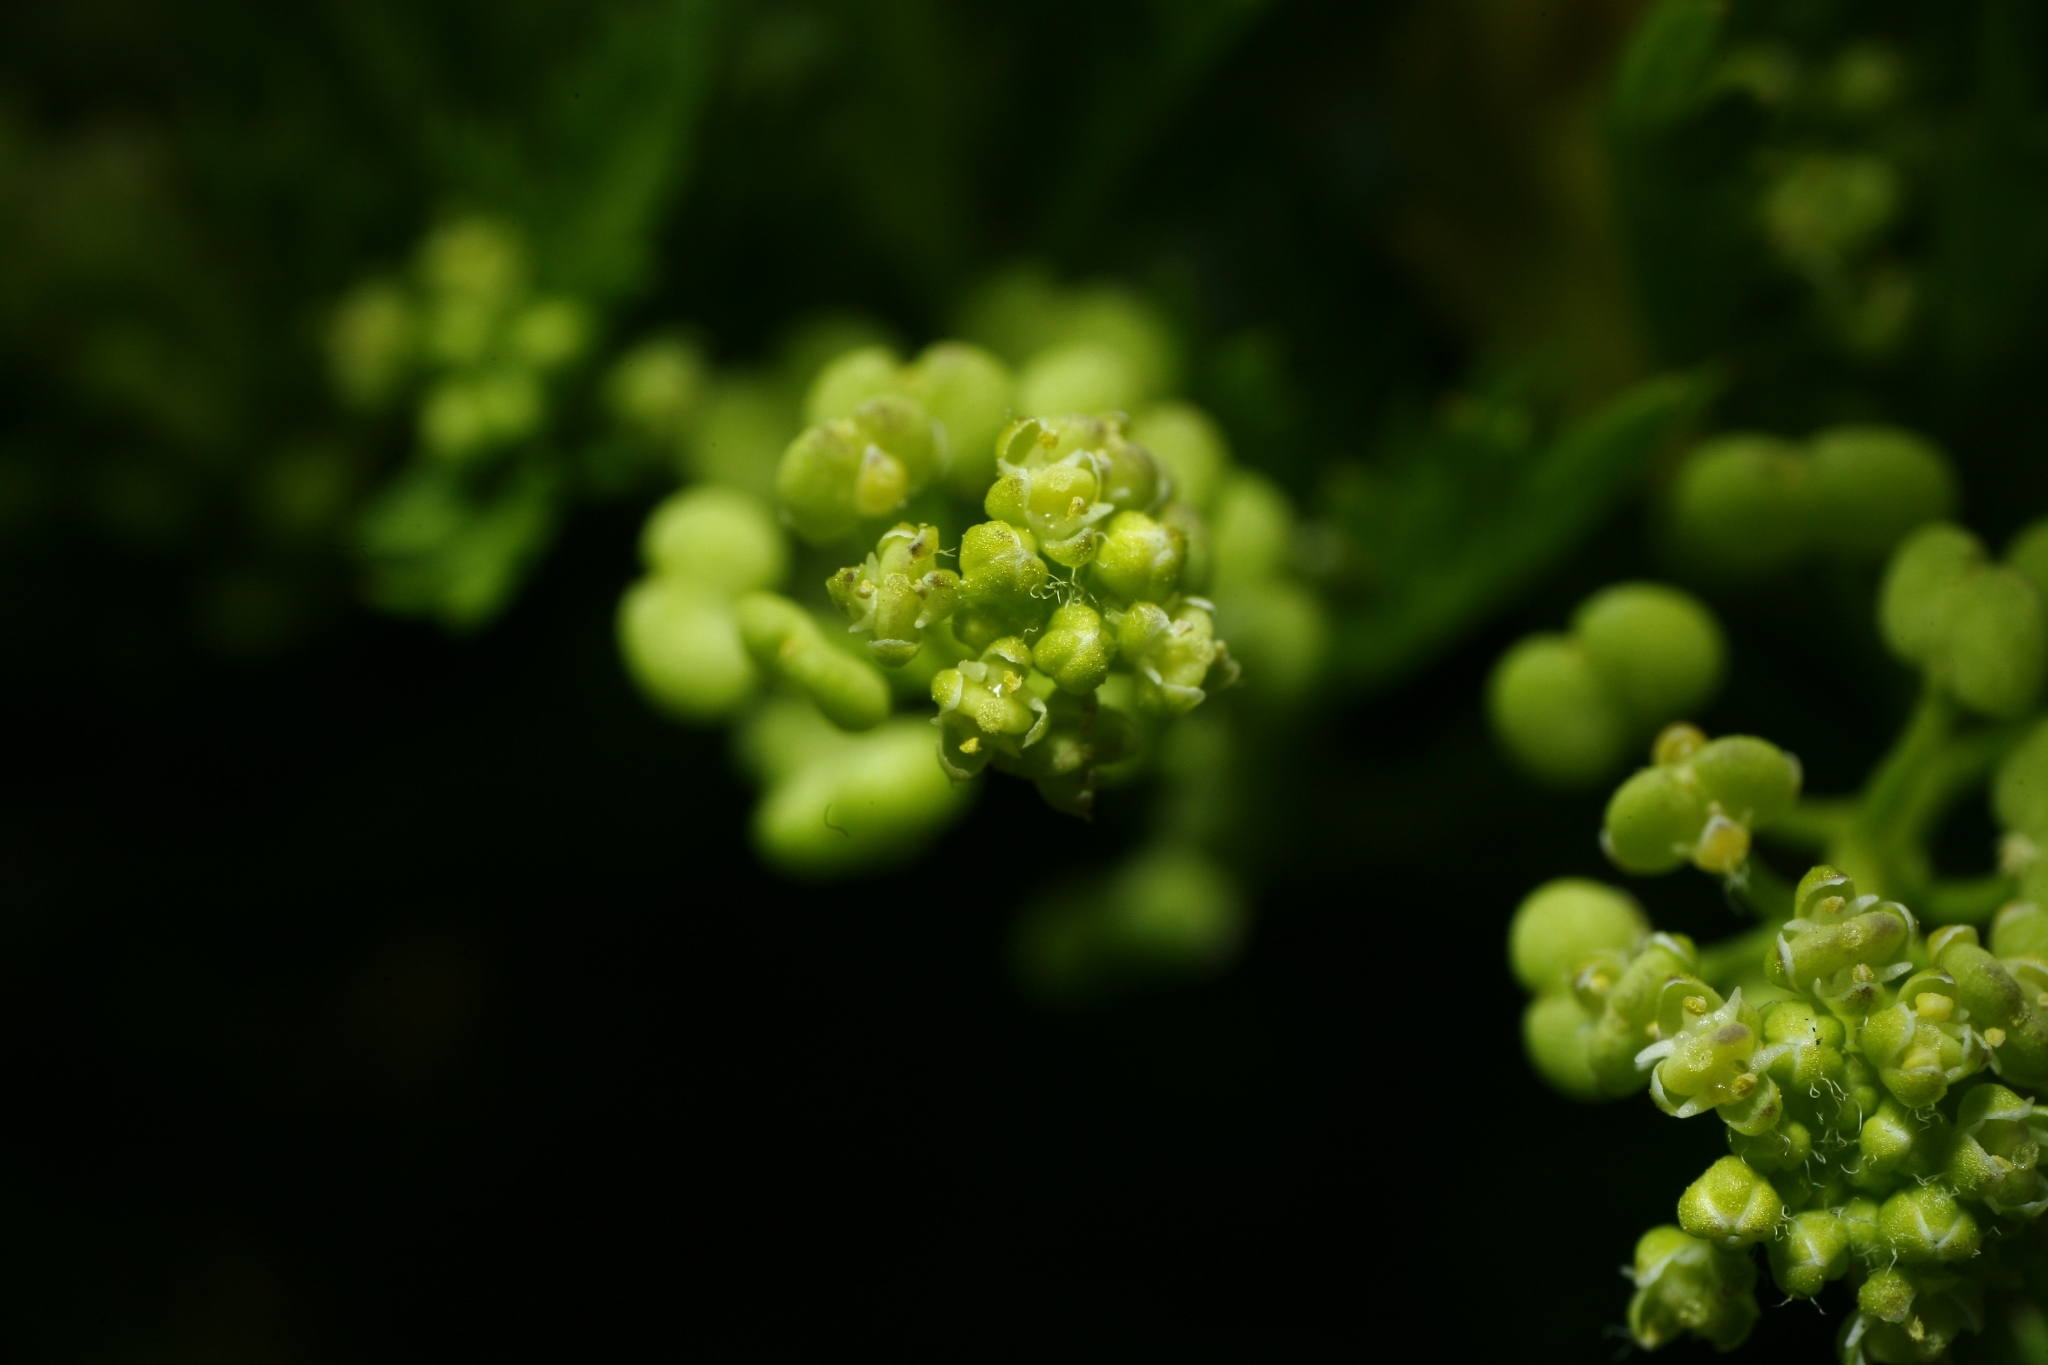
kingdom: Plantae
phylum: Tracheophyta
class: Magnoliopsida
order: Brassicales
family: Brassicaceae
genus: Lepidium
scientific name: Lepidium didymum
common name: Lesser swinecress
